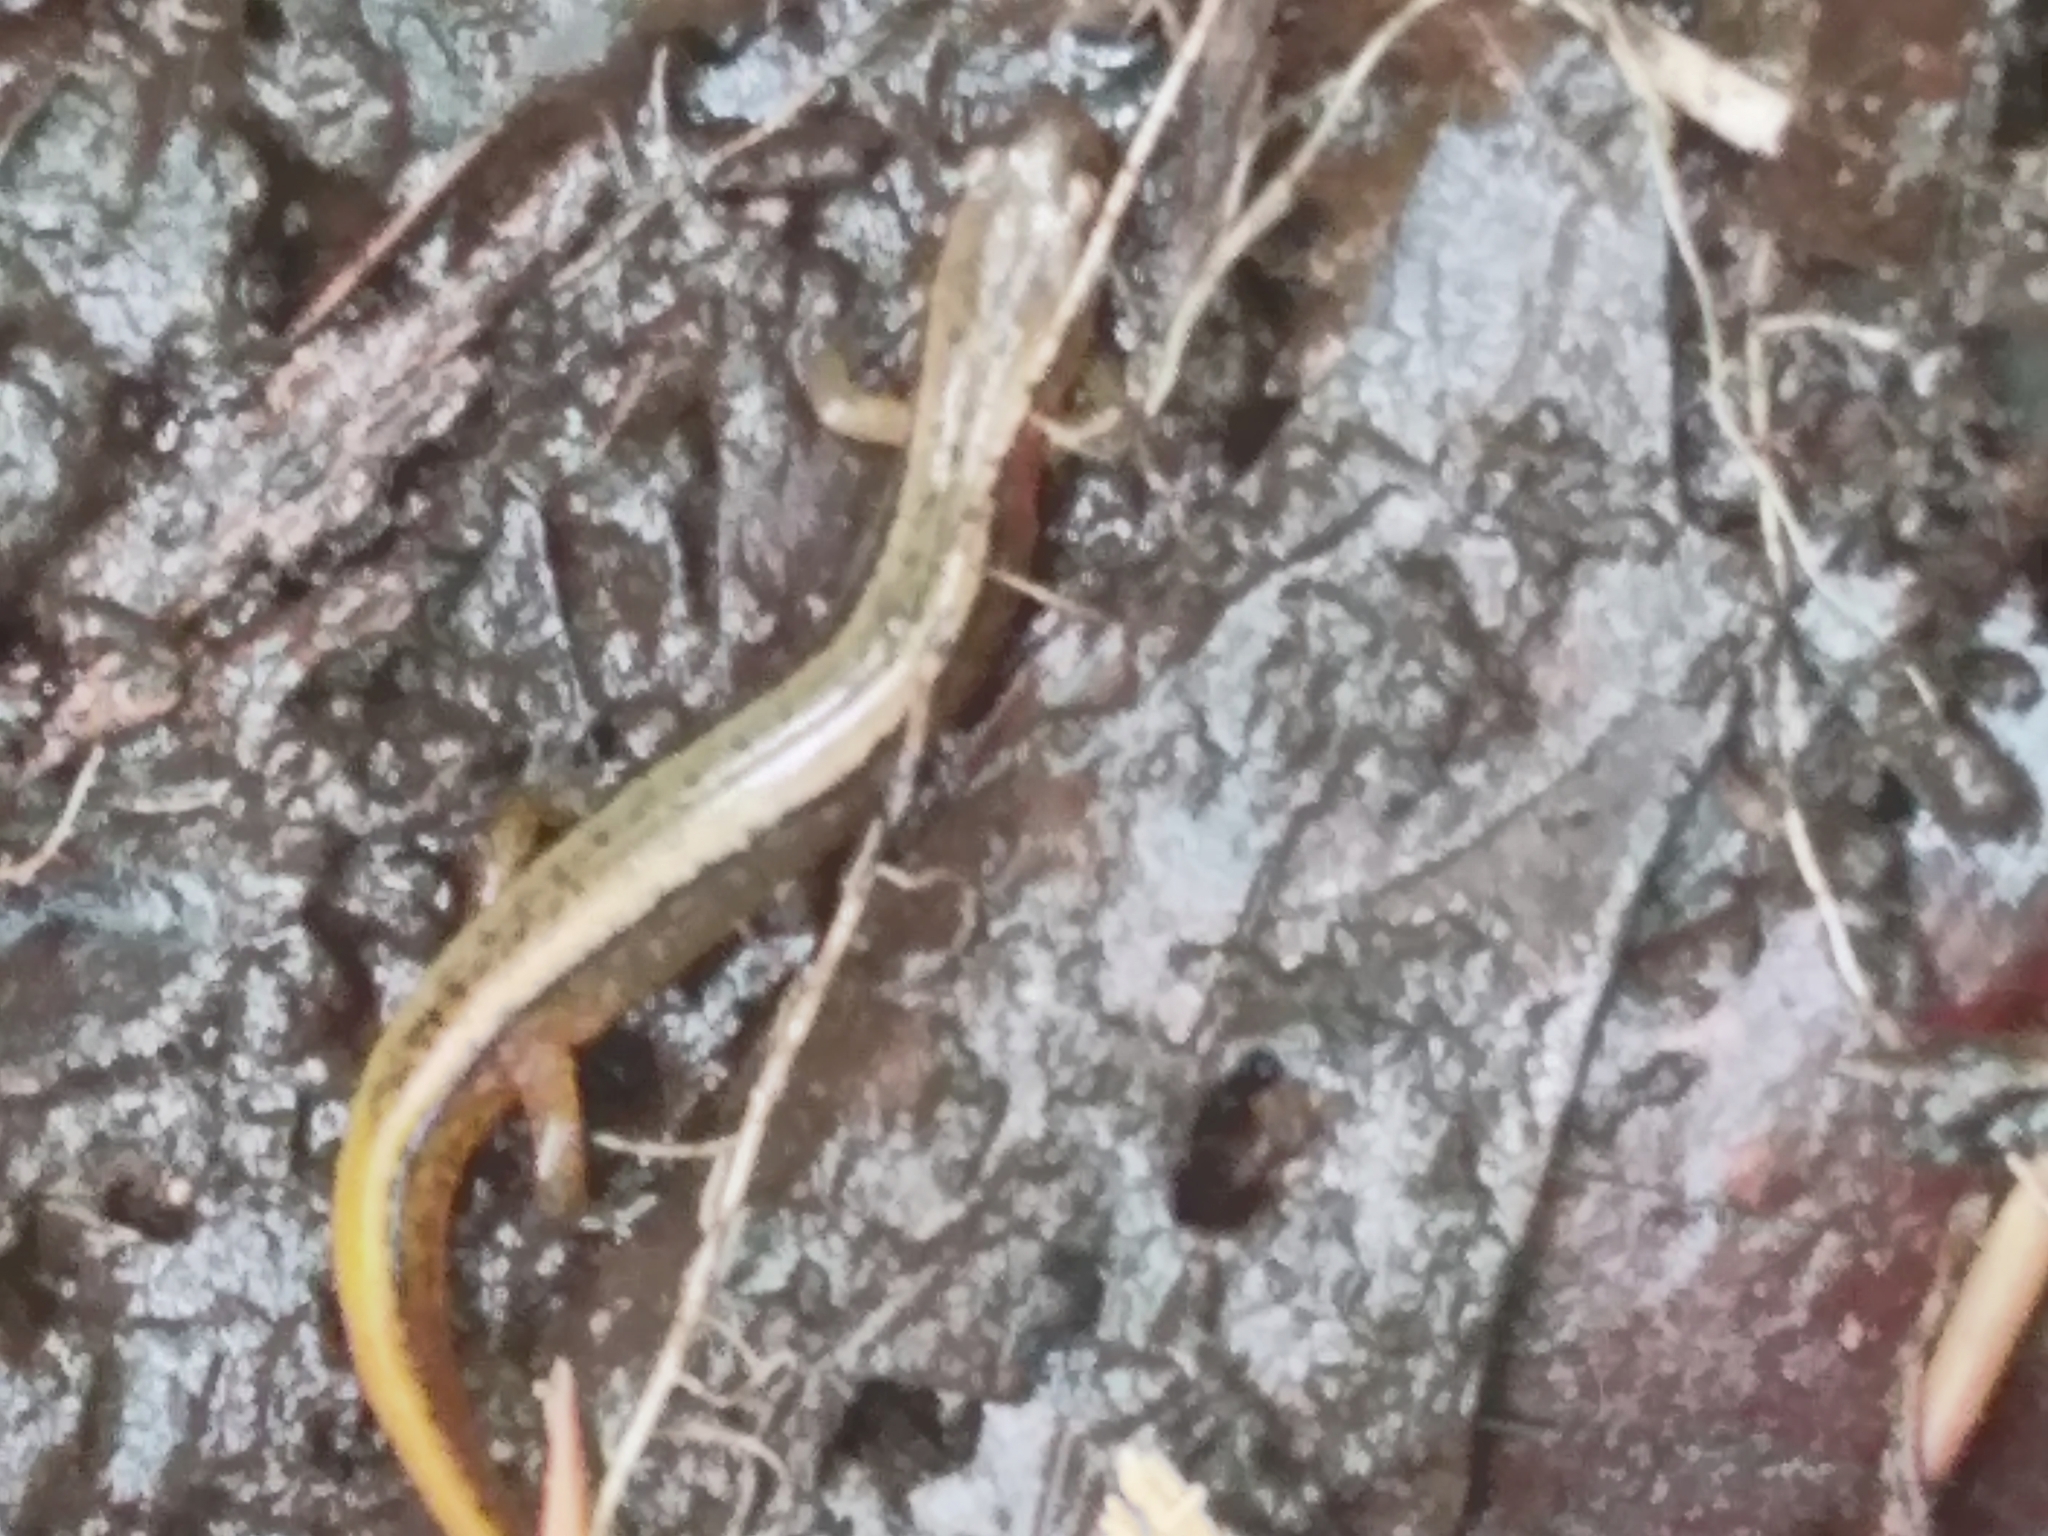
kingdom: Animalia
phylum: Chordata
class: Amphibia
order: Caudata
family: Plethodontidae
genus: Eurycea
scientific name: Eurycea bislineata
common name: Northern two-lined salamander
